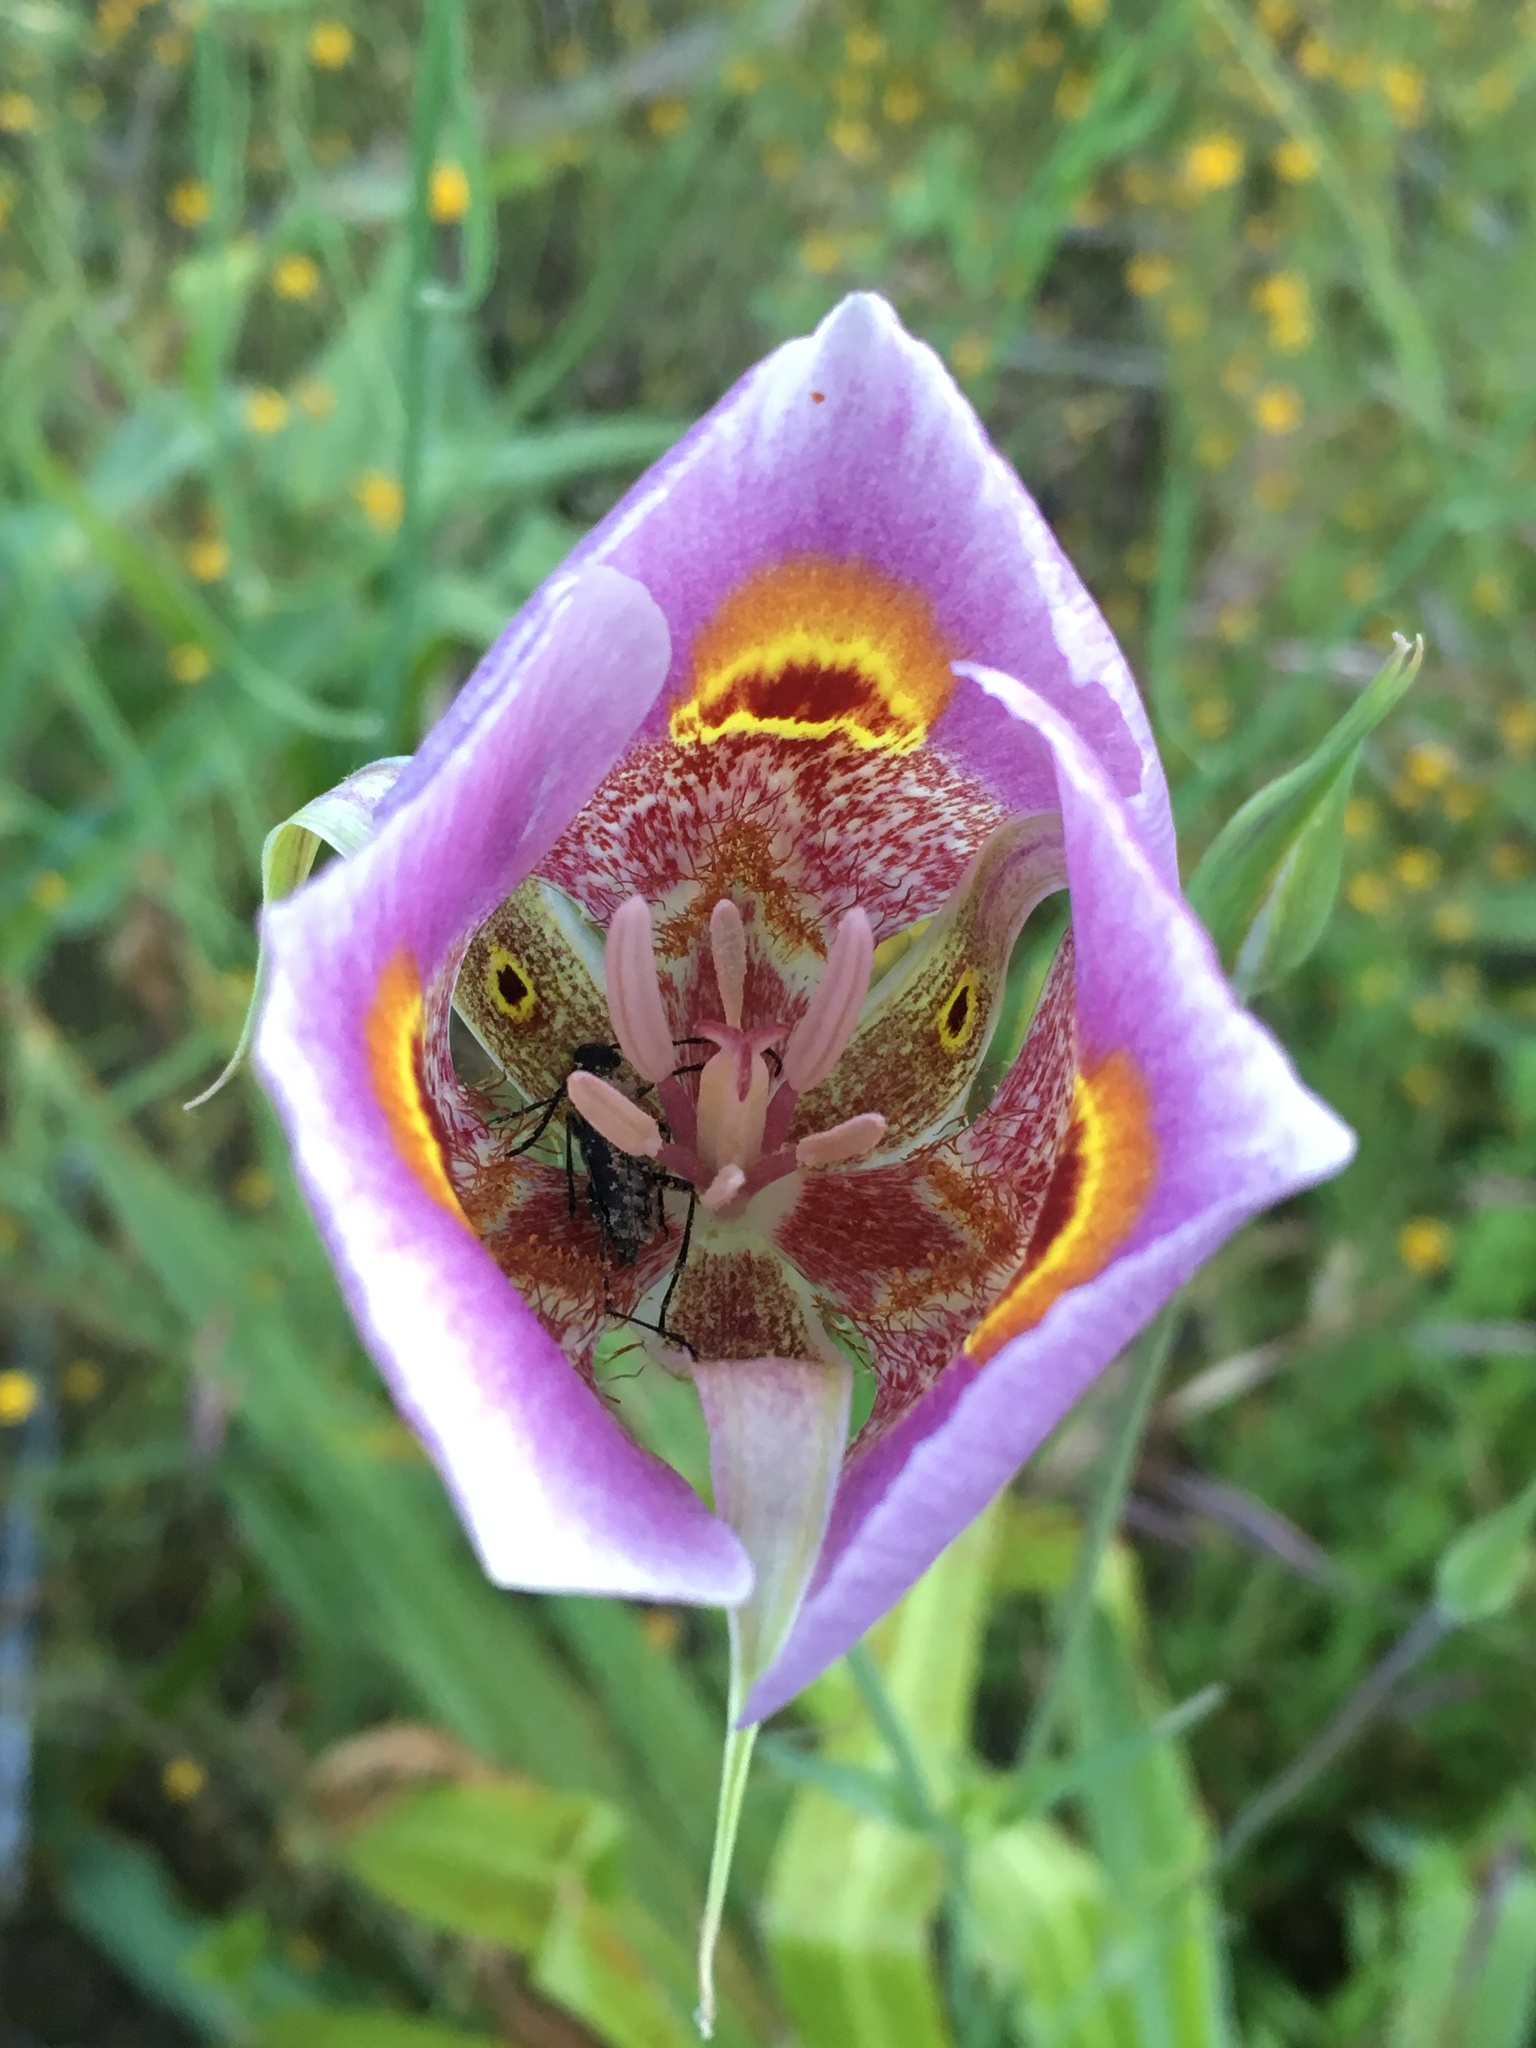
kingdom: Plantae
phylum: Tracheophyta
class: Liliopsida
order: Liliales
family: Liliaceae
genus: Calochortus
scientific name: Calochortus superbus
